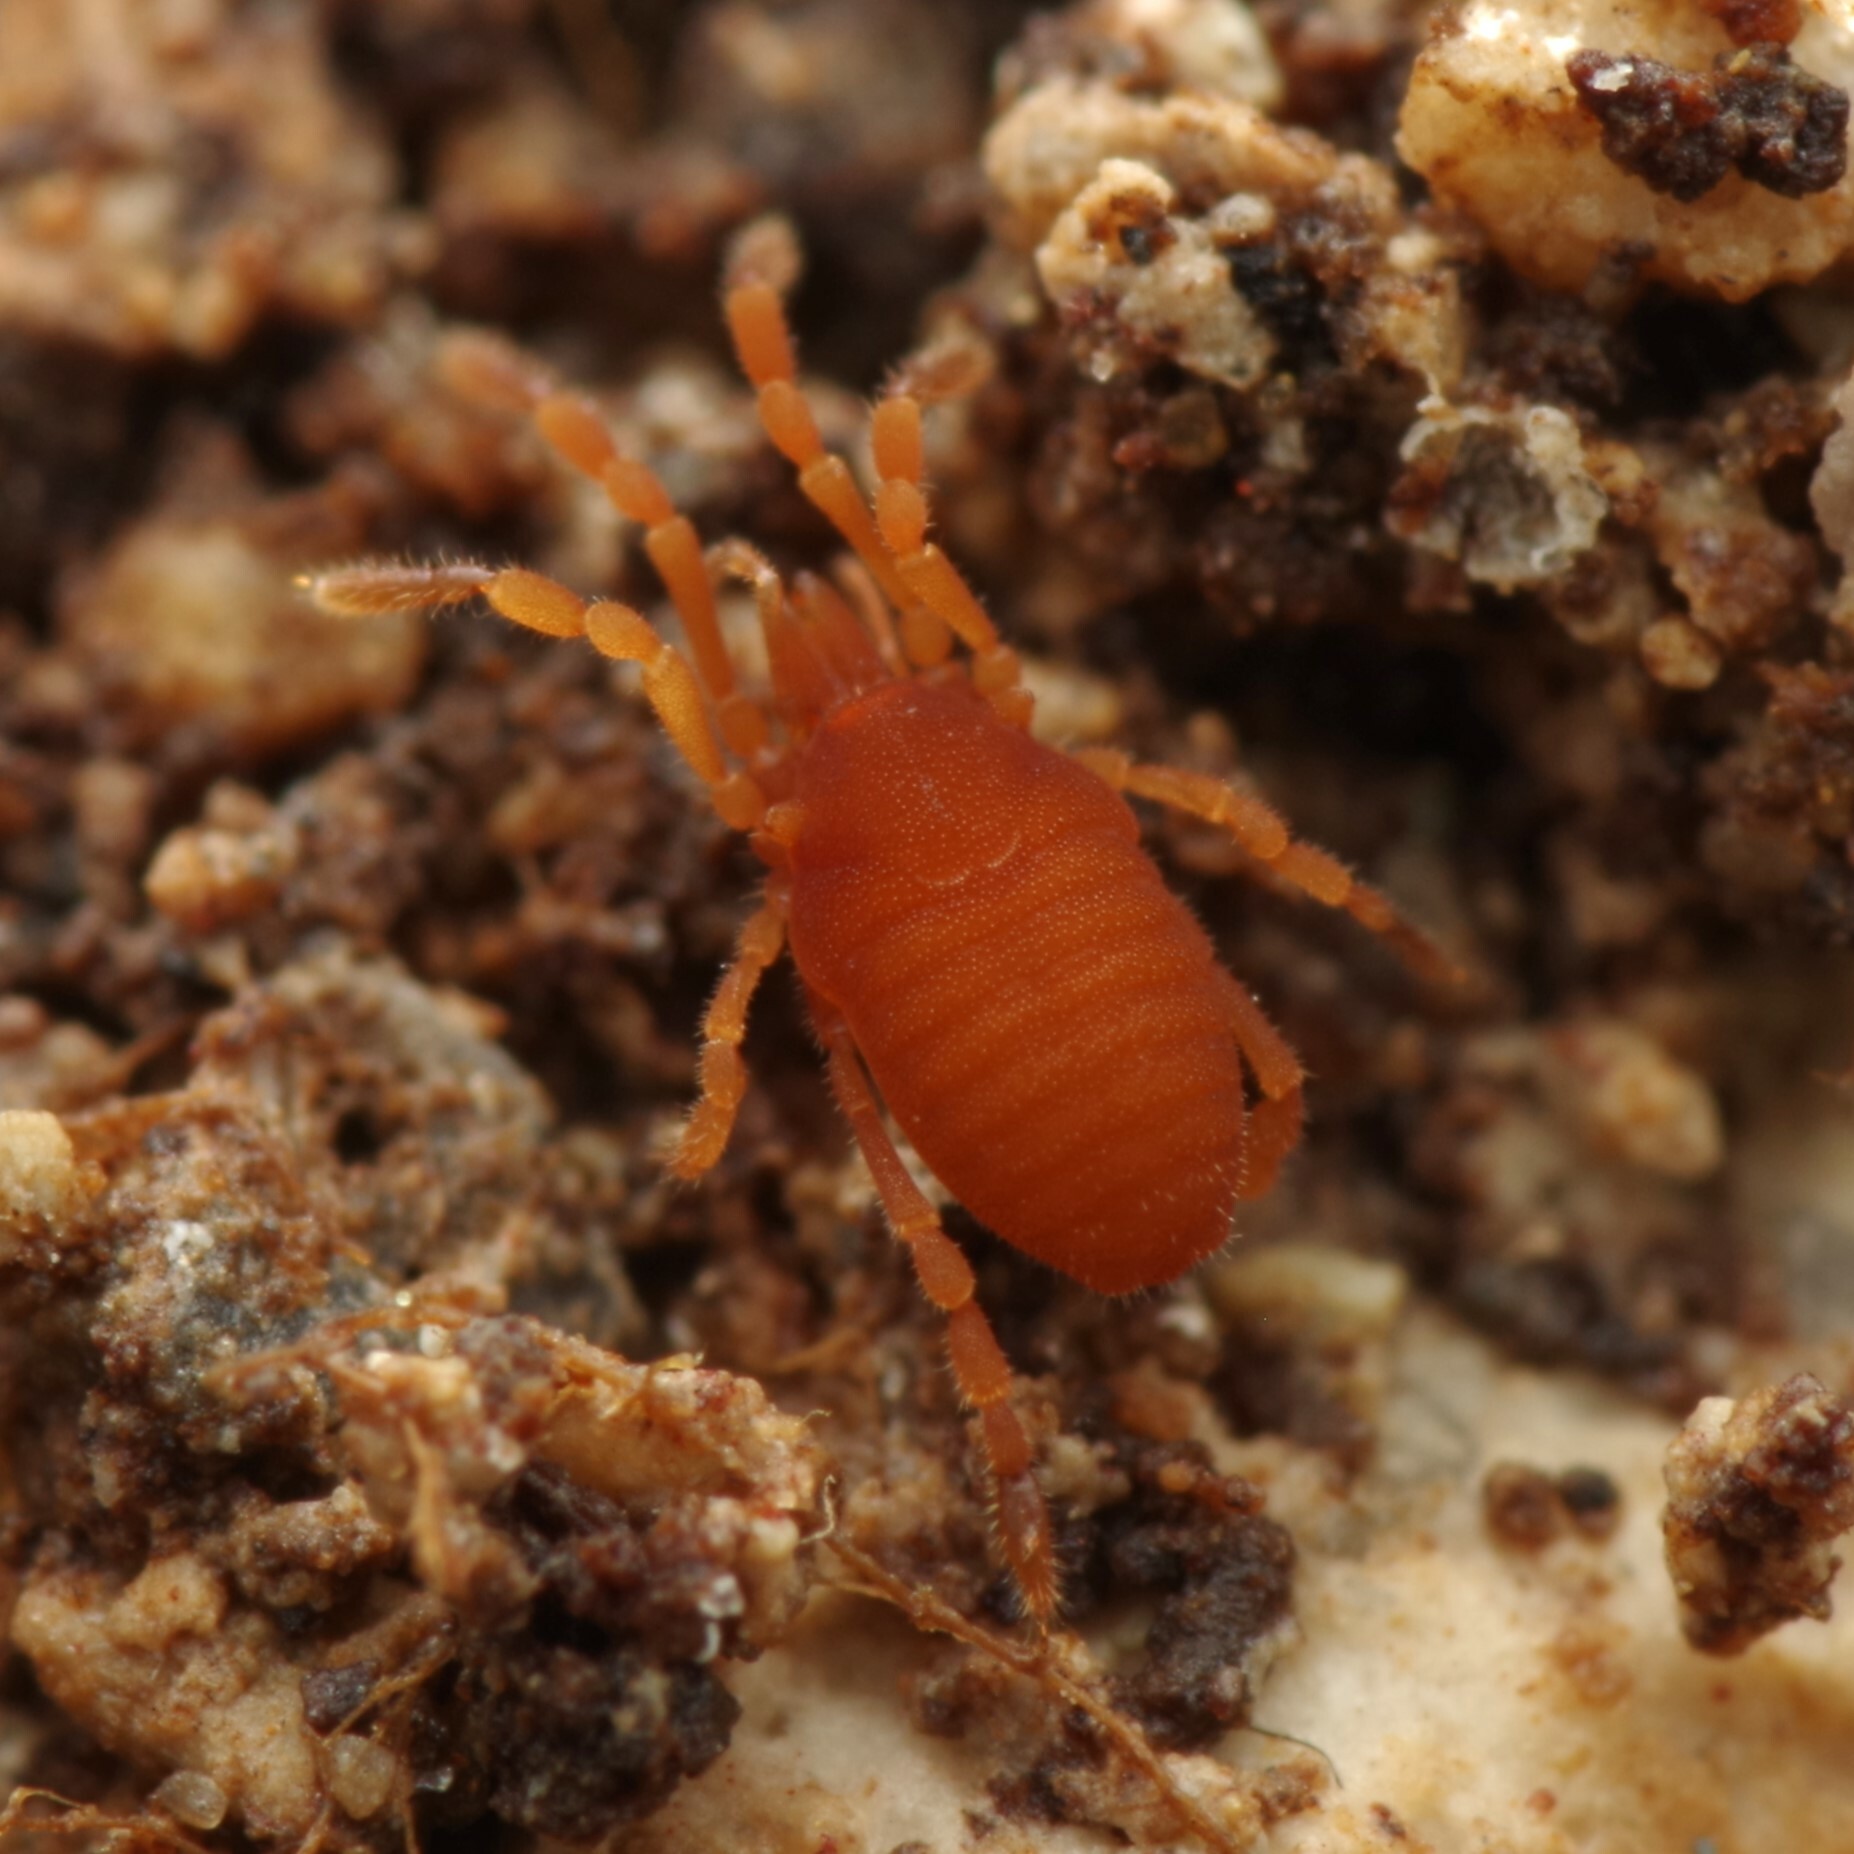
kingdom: Animalia
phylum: Arthropoda
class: Arachnida
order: Opiliones
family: Sironidae
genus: Siro
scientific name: Siro rubens
